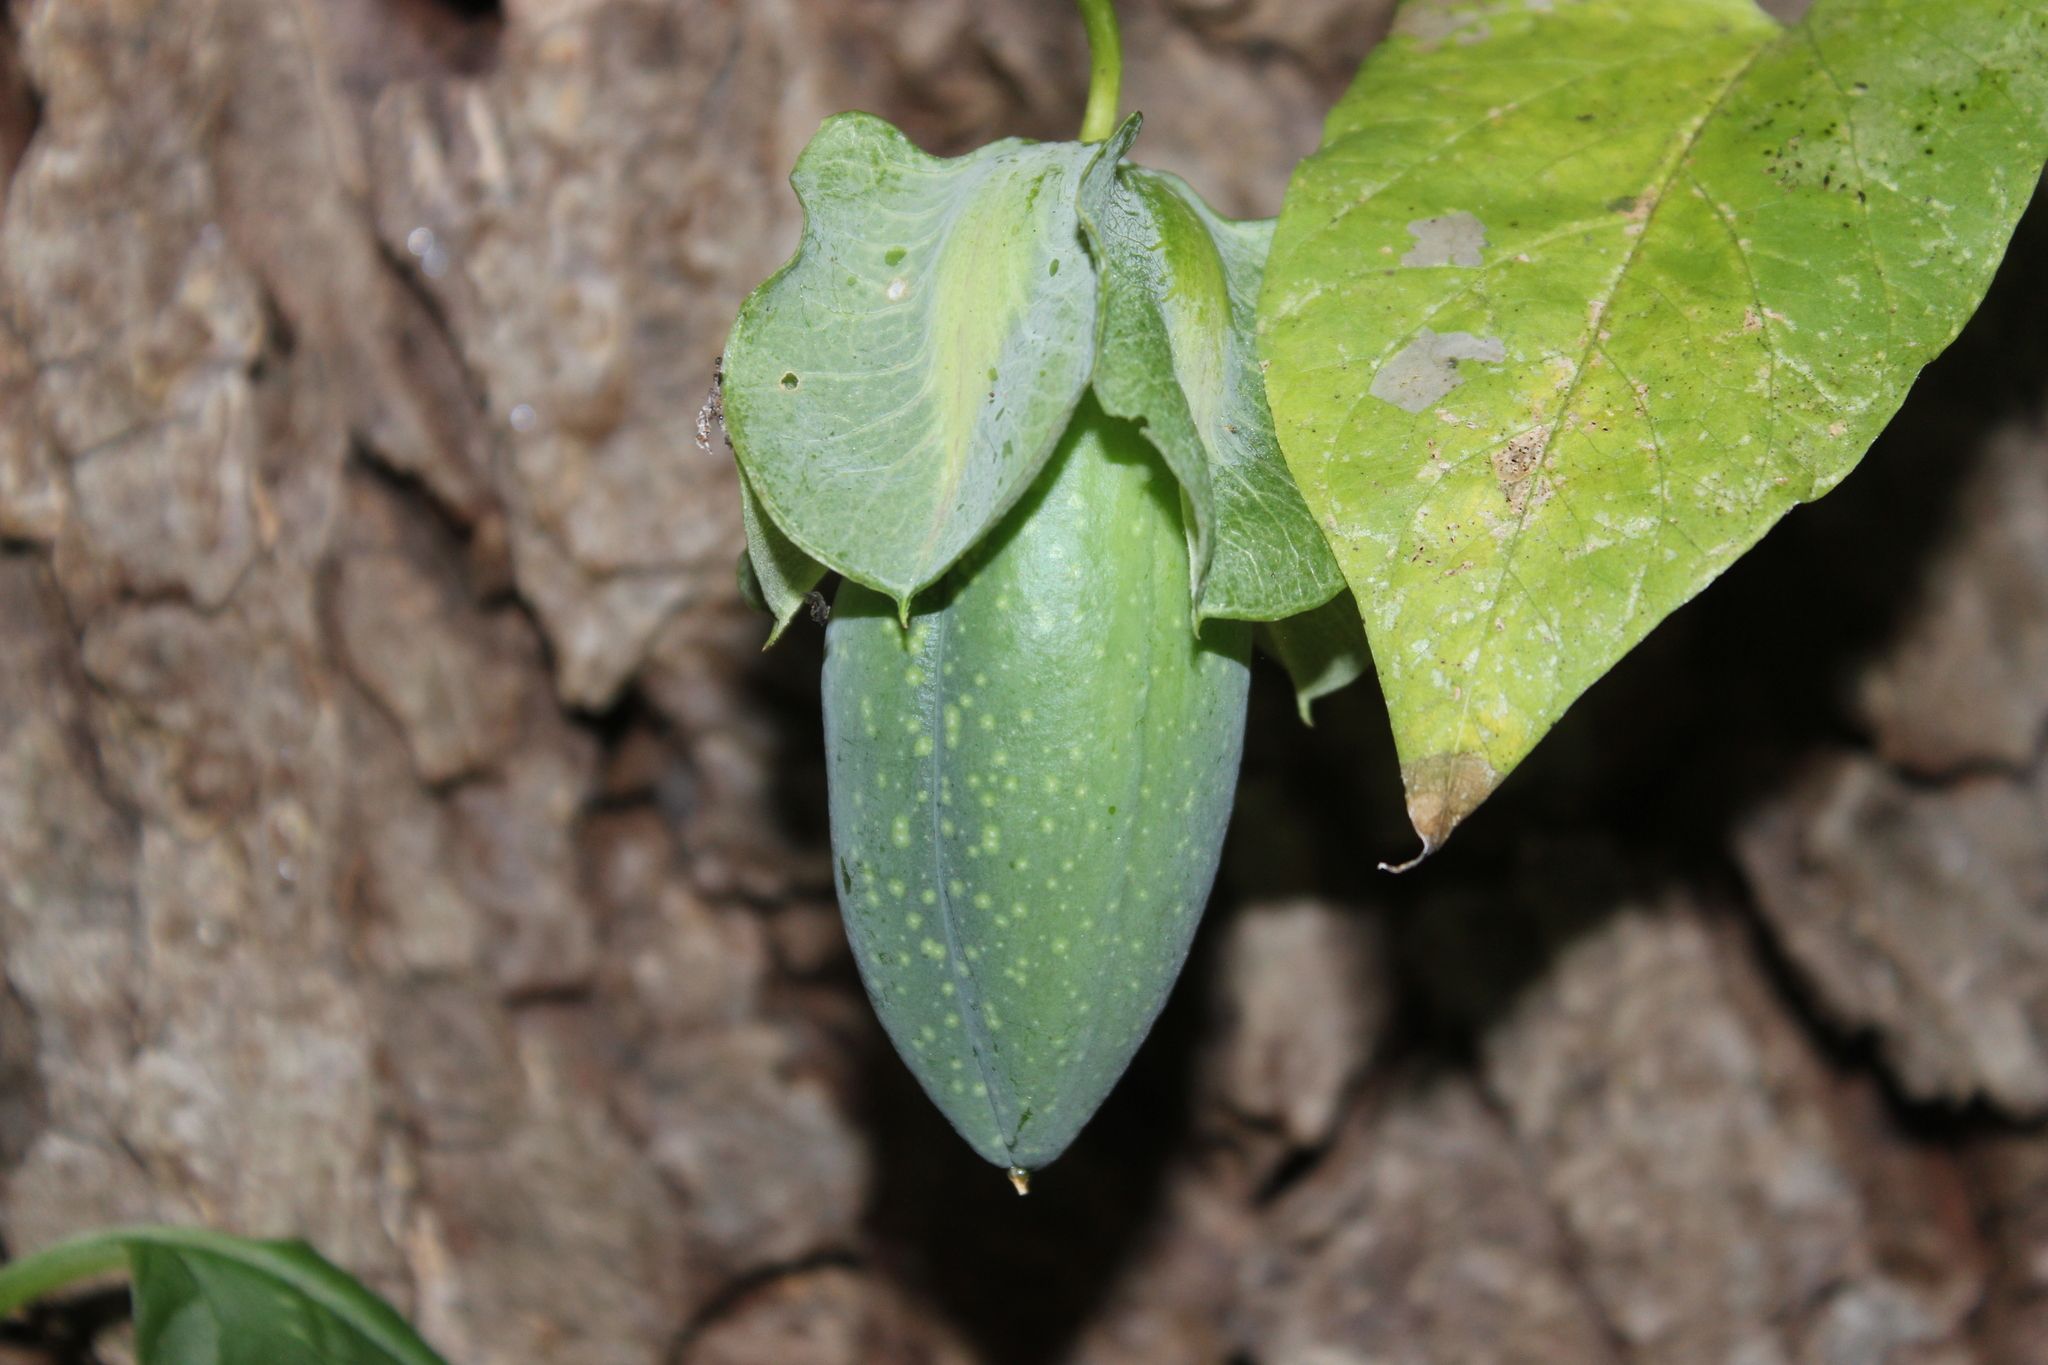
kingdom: Plantae
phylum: Tracheophyta
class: Magnoliopsida
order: Ericales
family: Polemoniaceae
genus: Cobaea
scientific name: Cobaea scandens
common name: Cup-and-saucer-vine
